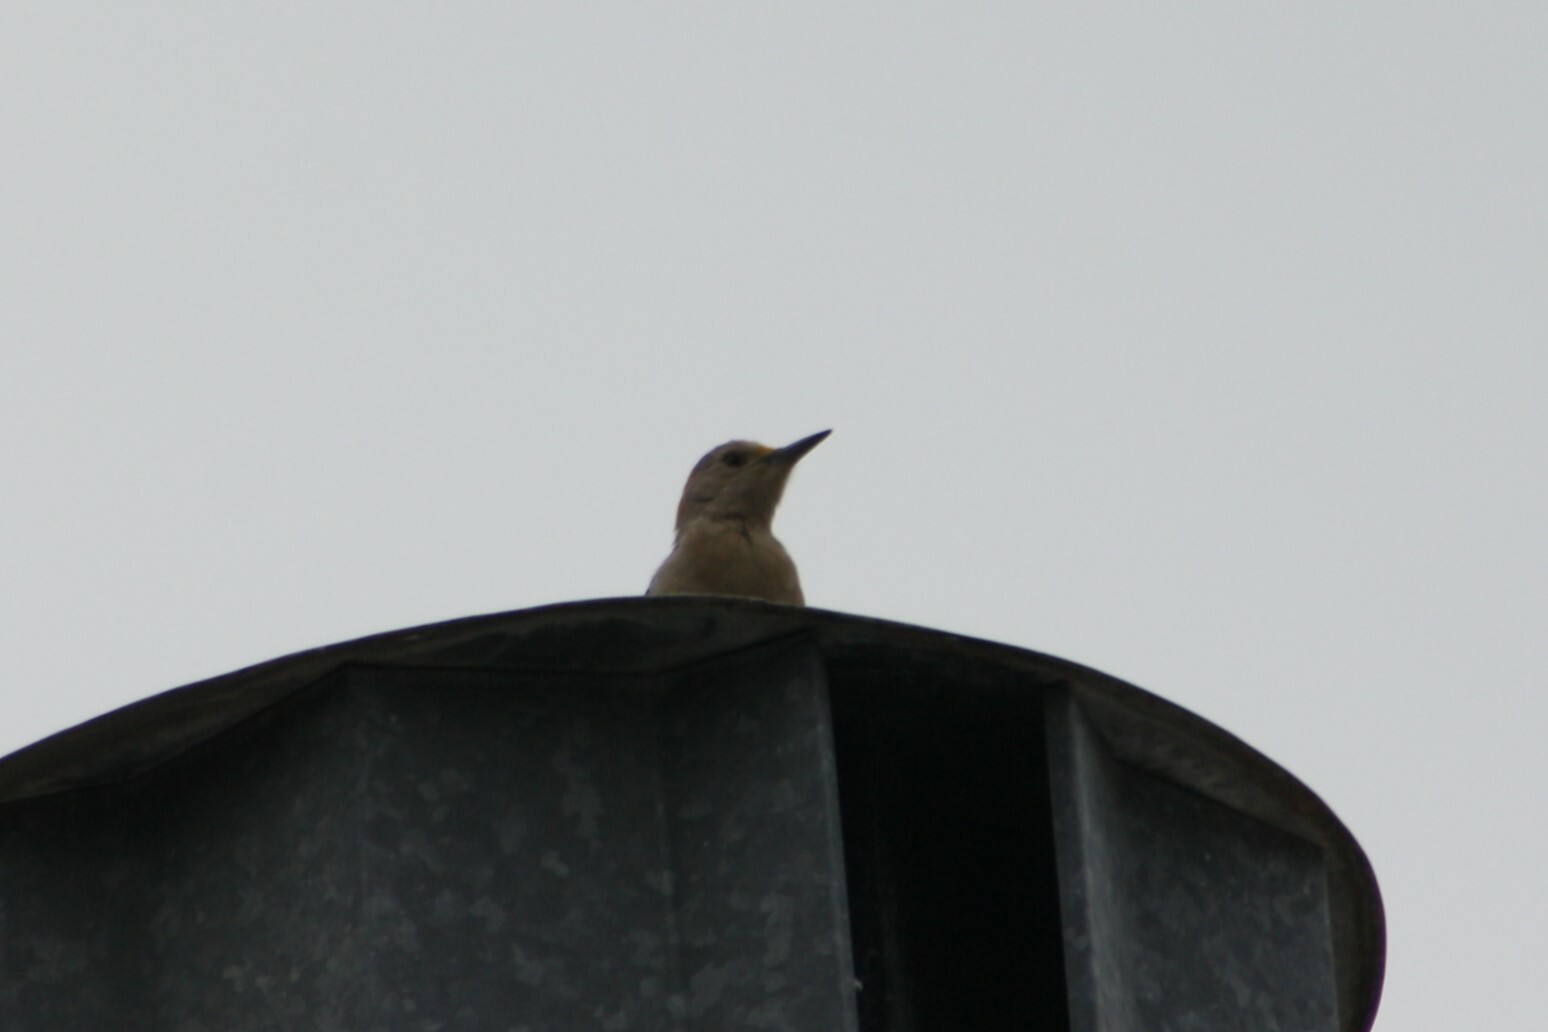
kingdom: Animalia
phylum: Chordata
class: Aves
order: Piciformes
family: Picidae
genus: Melanerpes
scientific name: Melanerpes aurifrons
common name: Golden-fronted woodpecker
